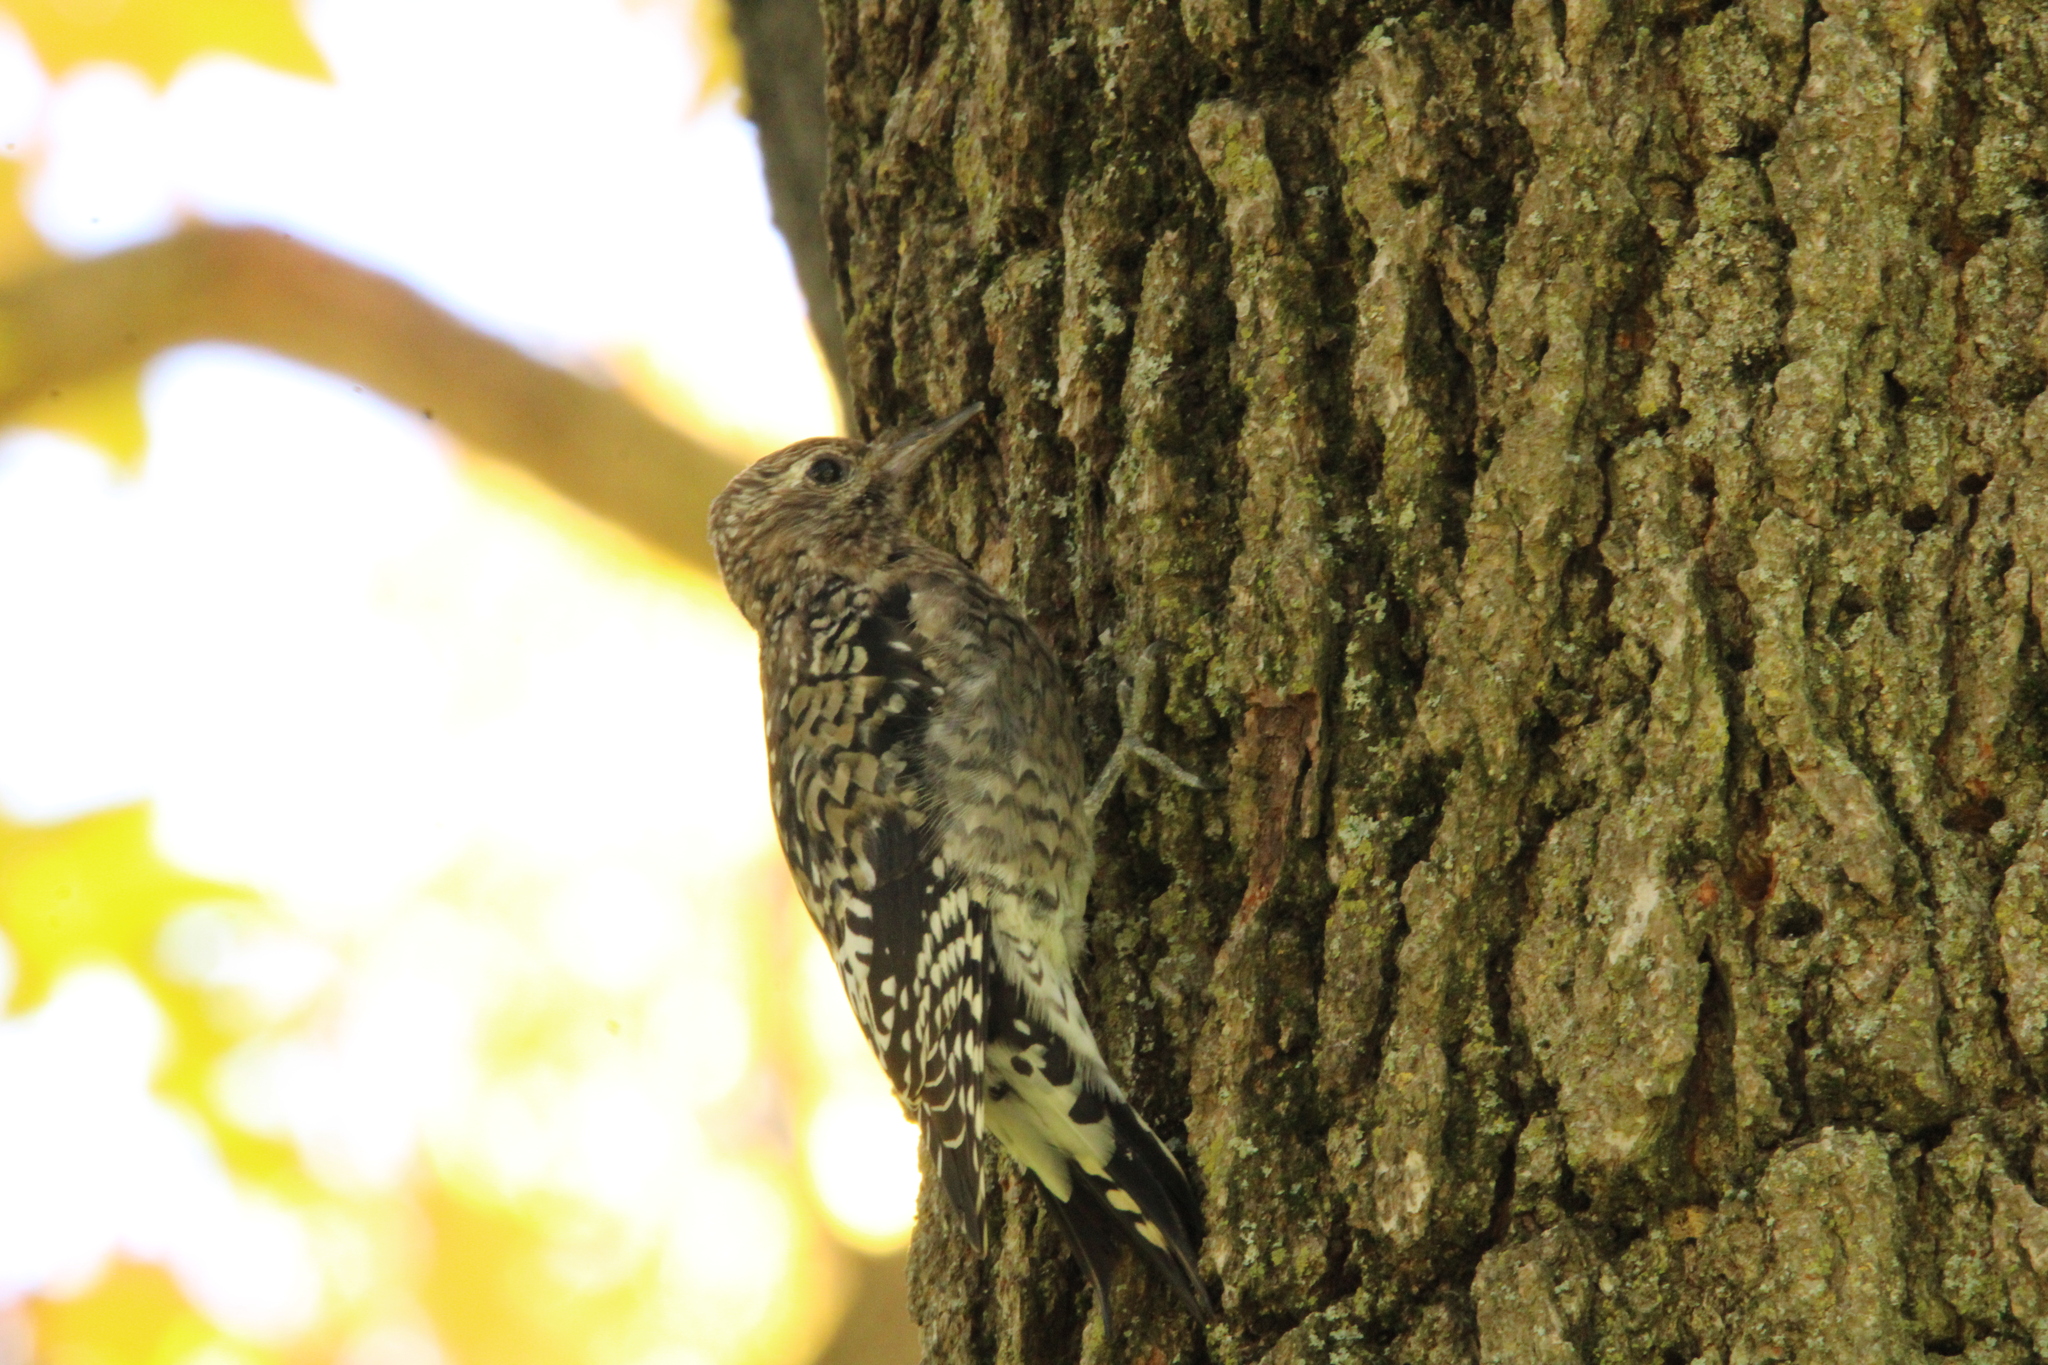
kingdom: Animalia
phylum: Chordata
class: Aves
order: Piciformes
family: Picidae
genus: Sphyrapicus
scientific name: Sphyrapicus varius
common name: Yellow-bellied sapsucker
